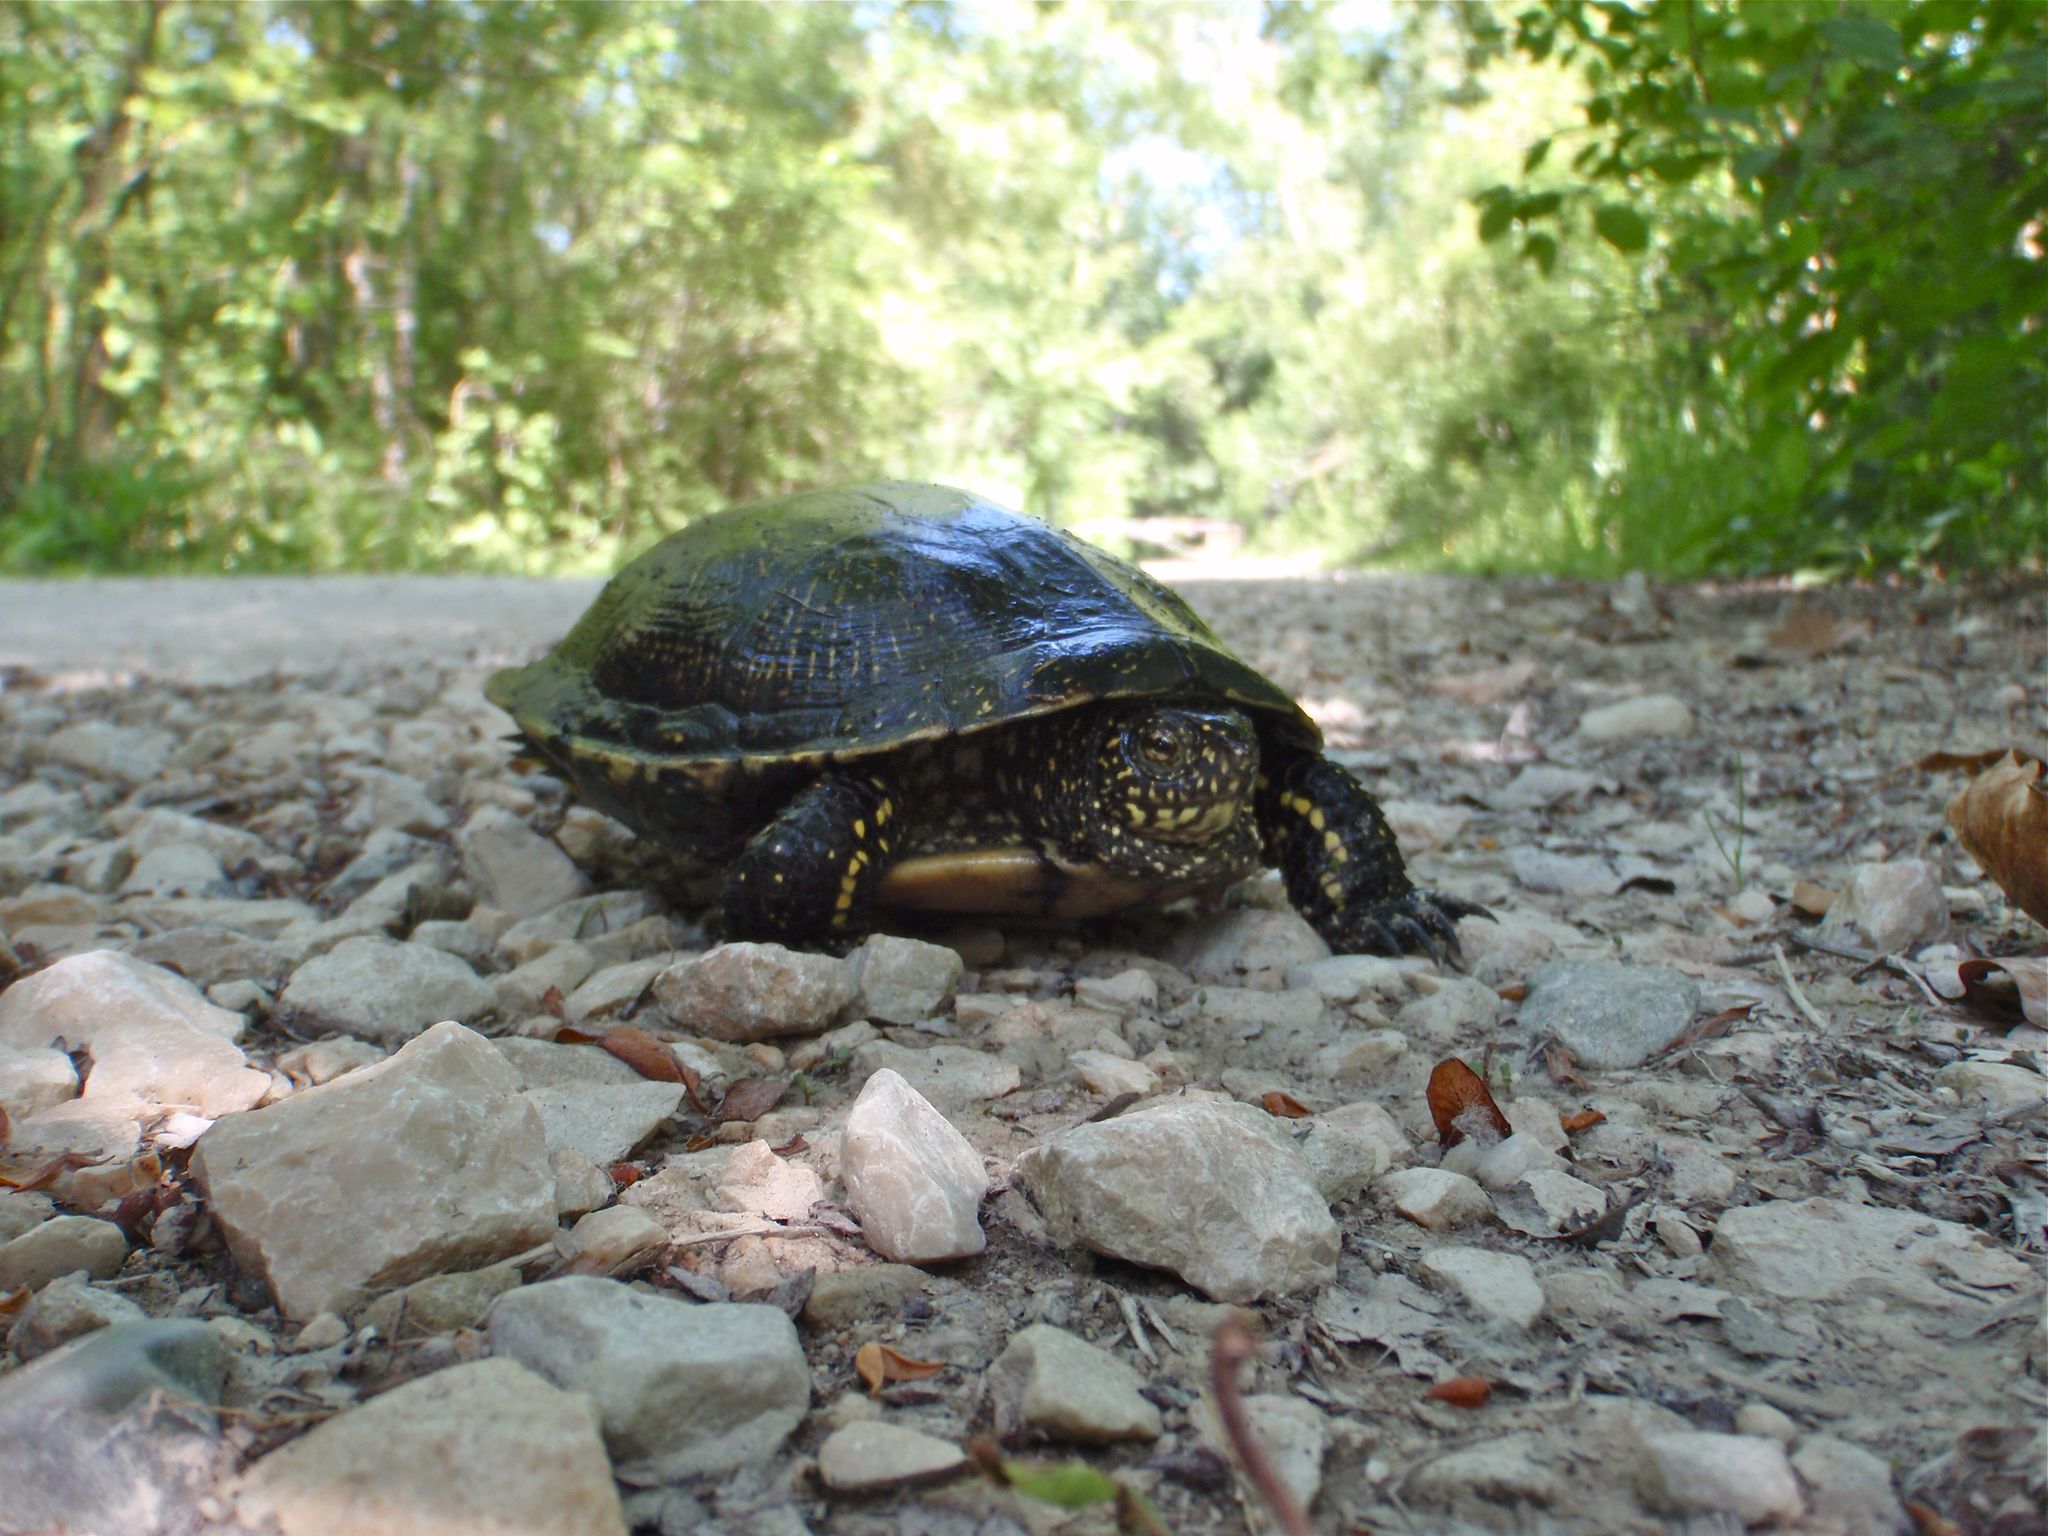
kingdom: Animalia
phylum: Chordata
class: Testudines
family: Emydidae
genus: Emys
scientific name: Emys orbicularis
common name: European pond turtle
